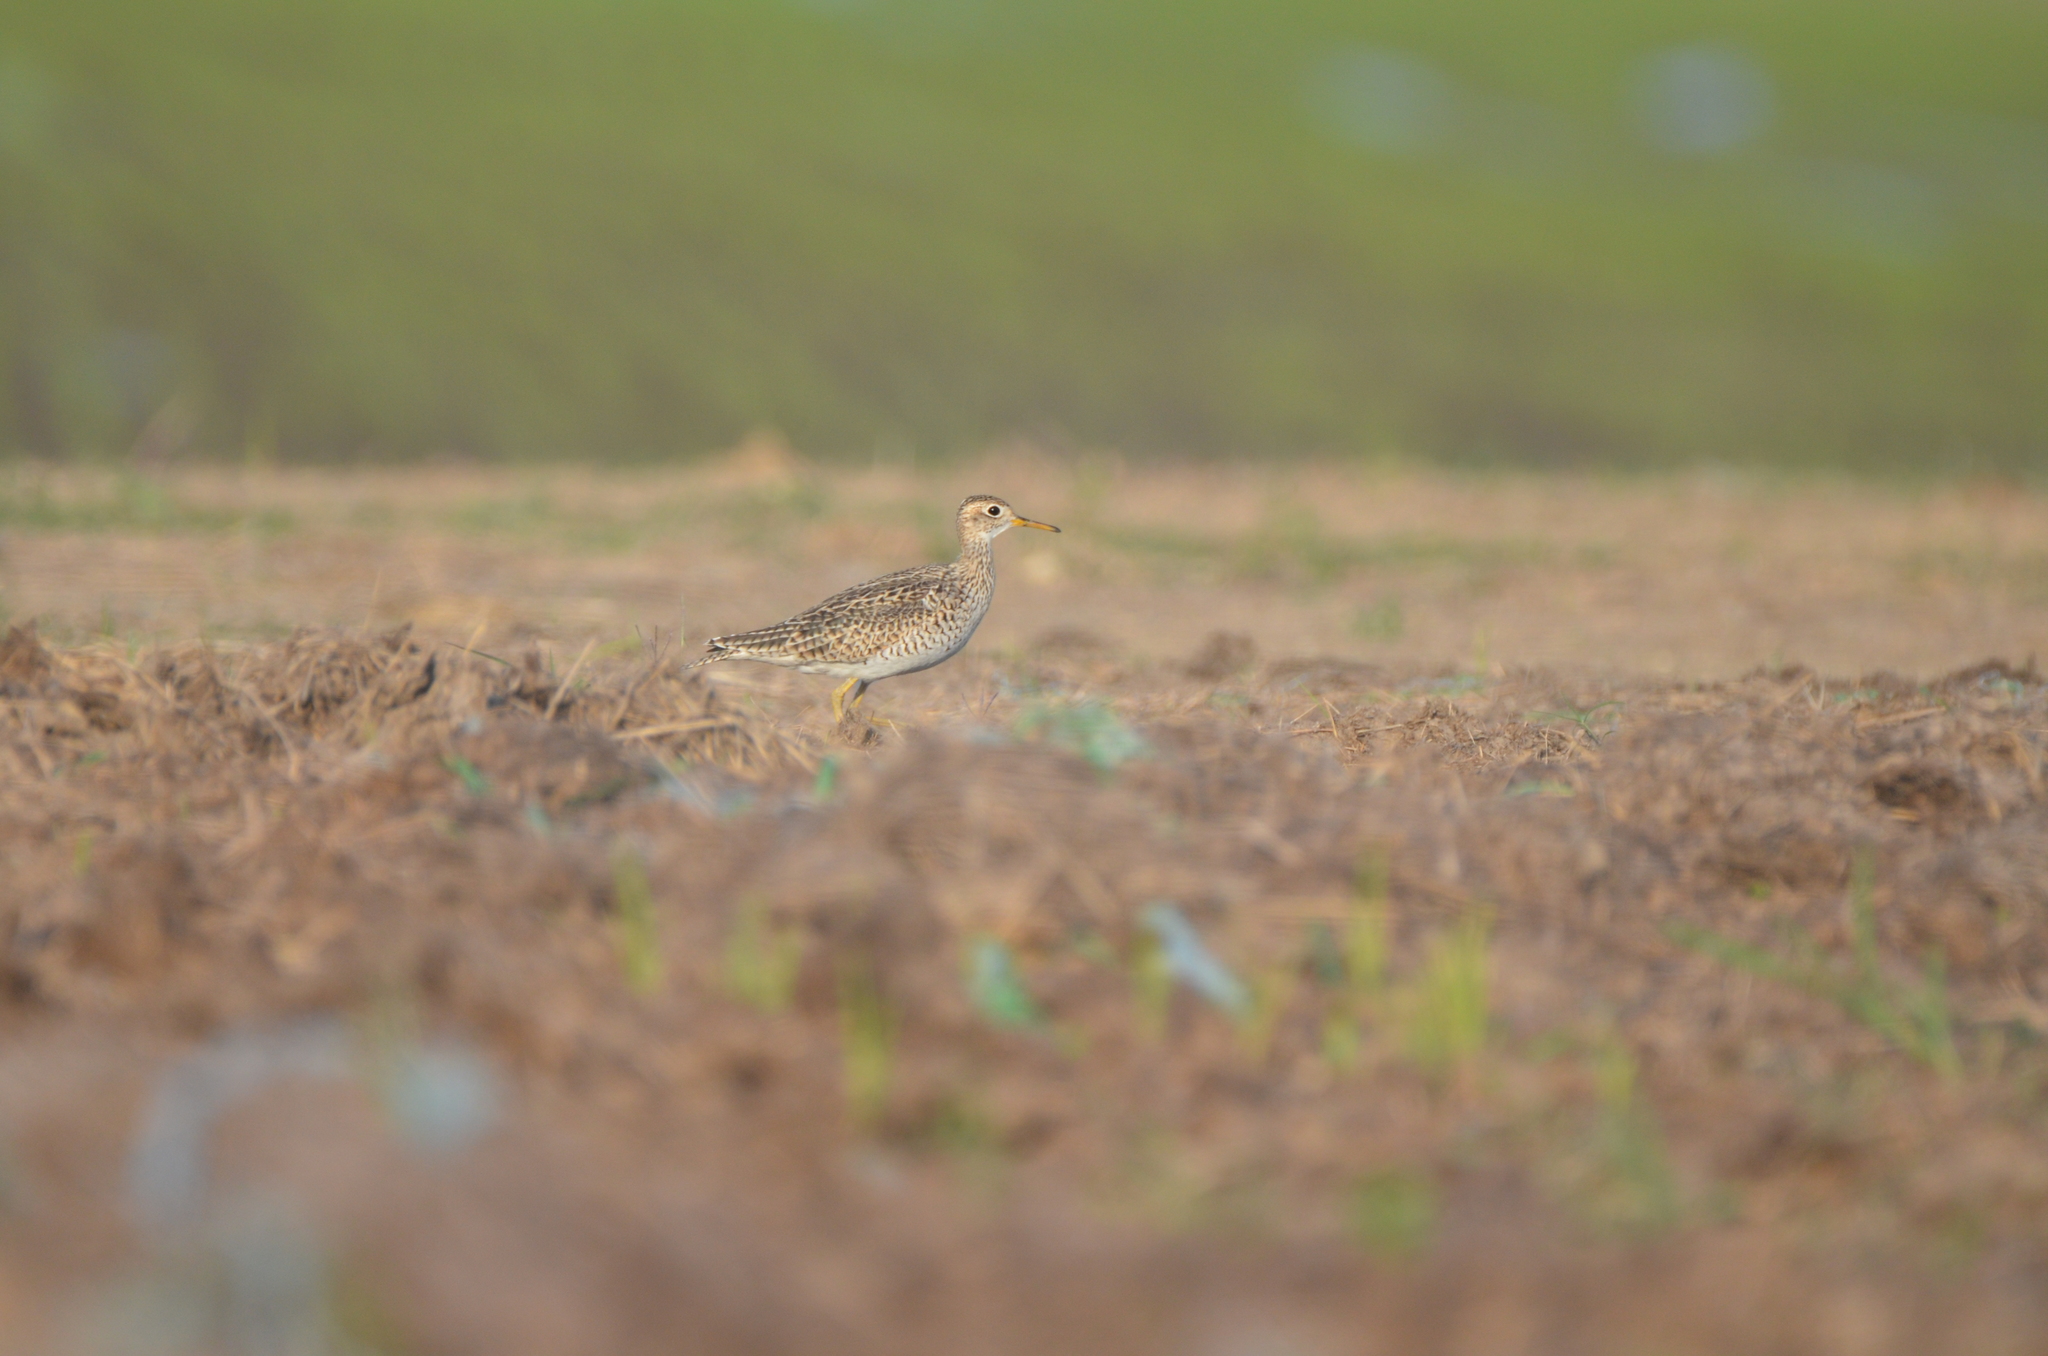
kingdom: Animalia
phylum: Chordata
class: Aves
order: Charadriiformes
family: Scolopacidae
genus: Bartramia
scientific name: Bartramia longicauda
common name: Upland sandpiper
